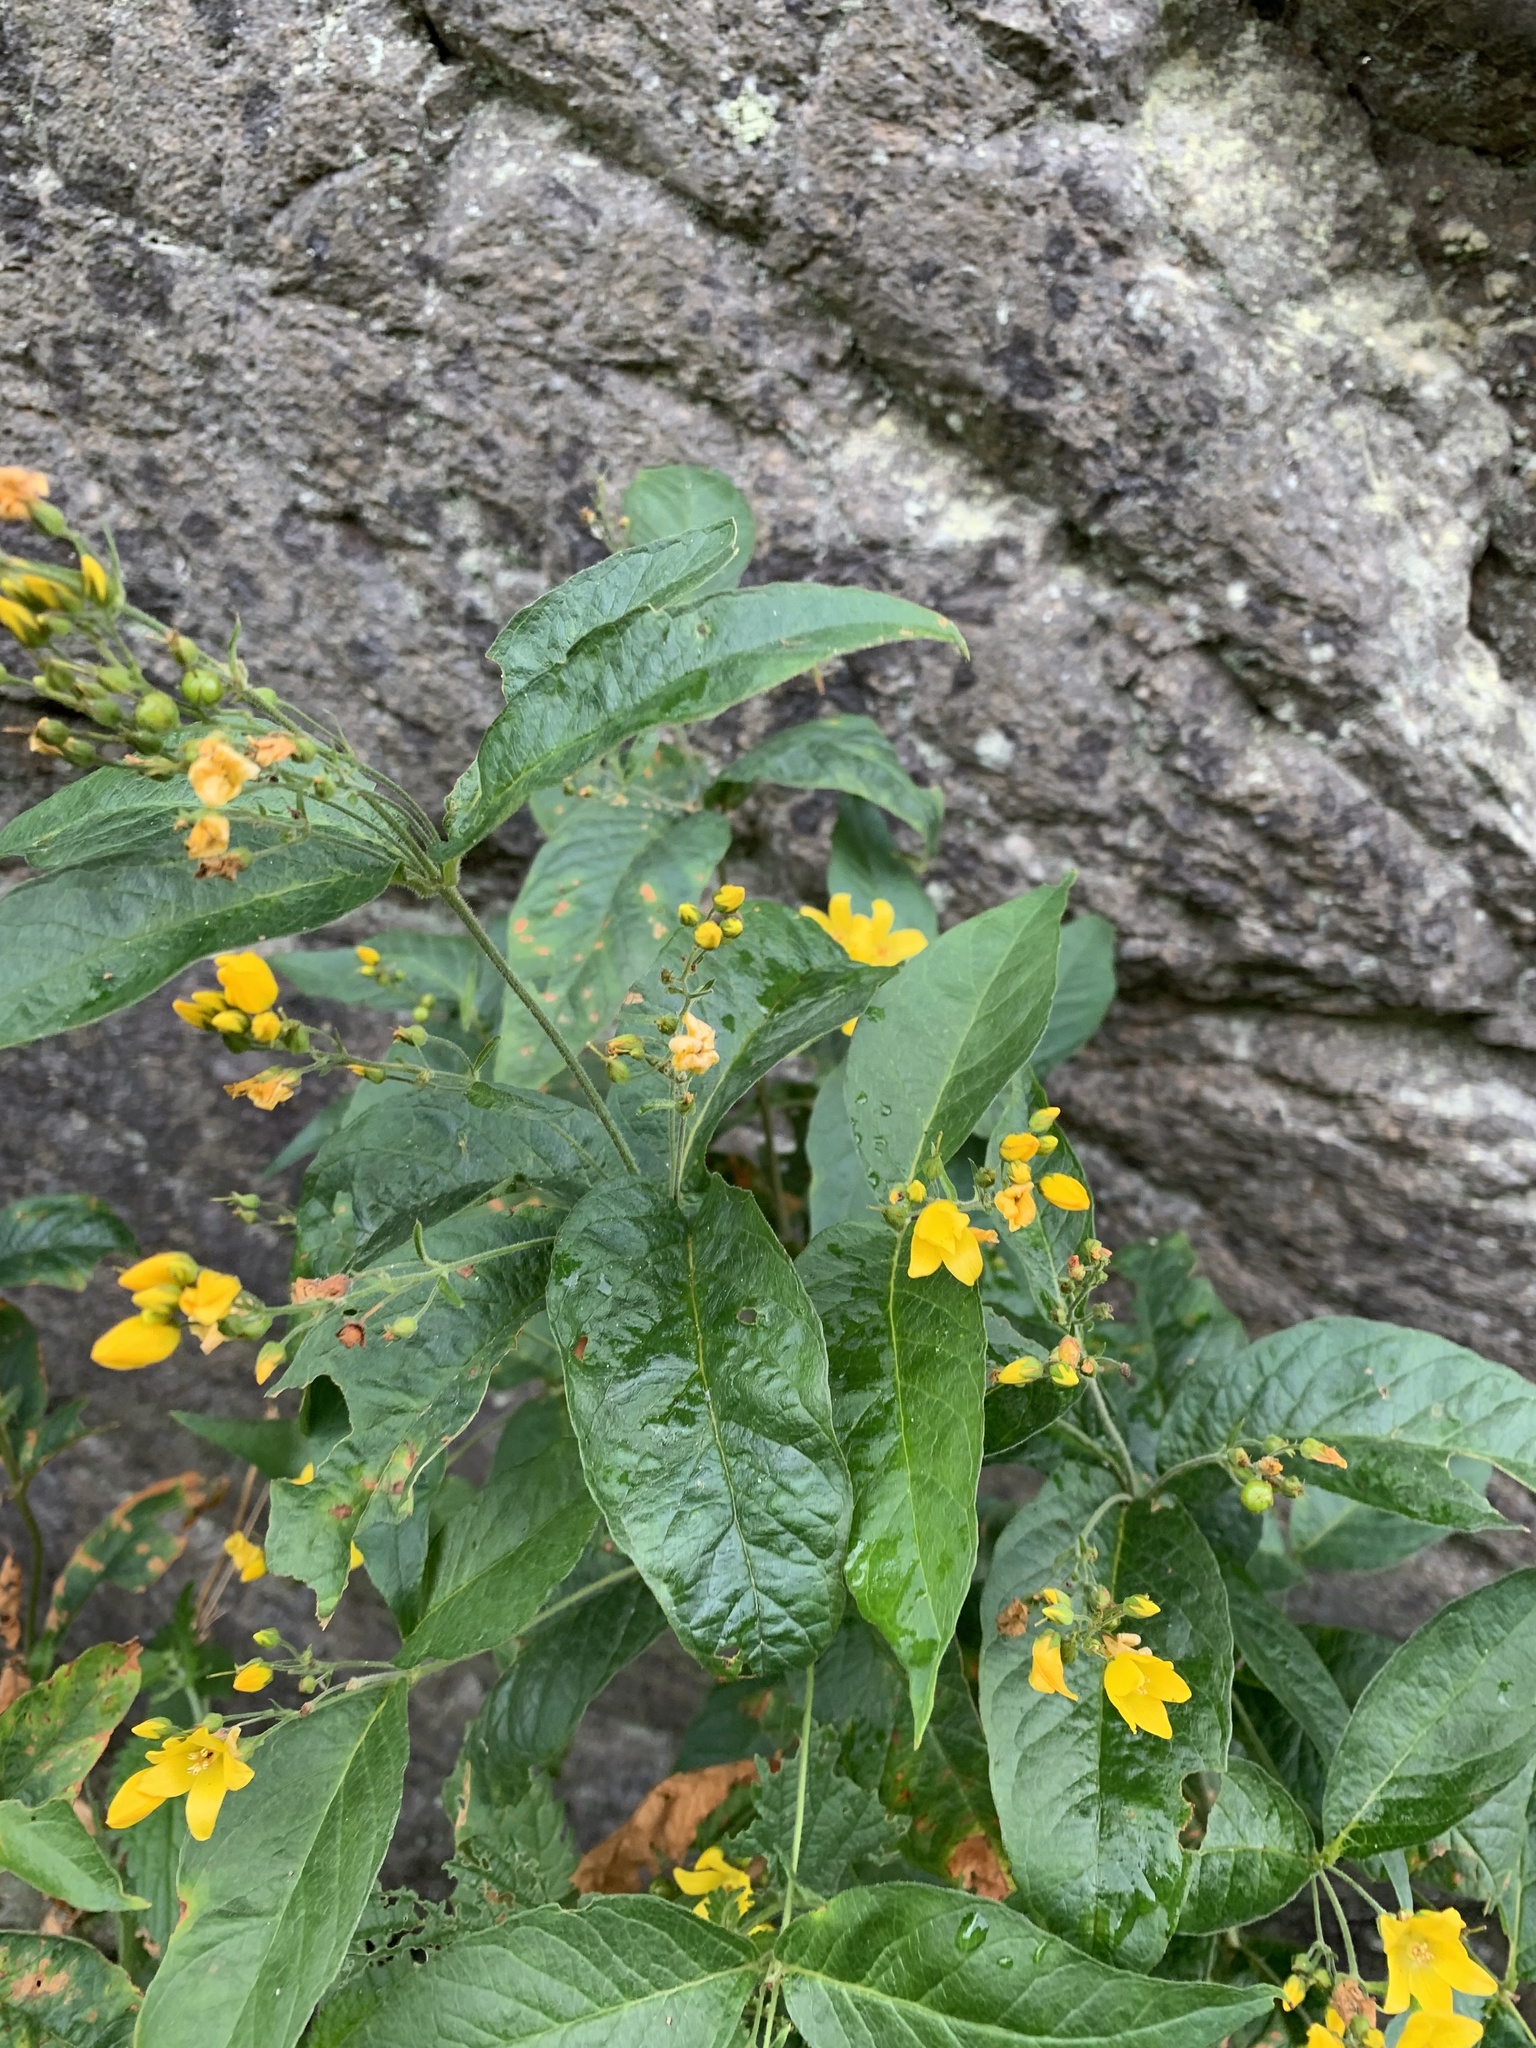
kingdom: Plantae
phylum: Tracheophyta
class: Magnoliopsida
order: Ericales
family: Primulaceae
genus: Lysimachia
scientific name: Lysimachia vulgaris
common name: Yellow loosestrife
